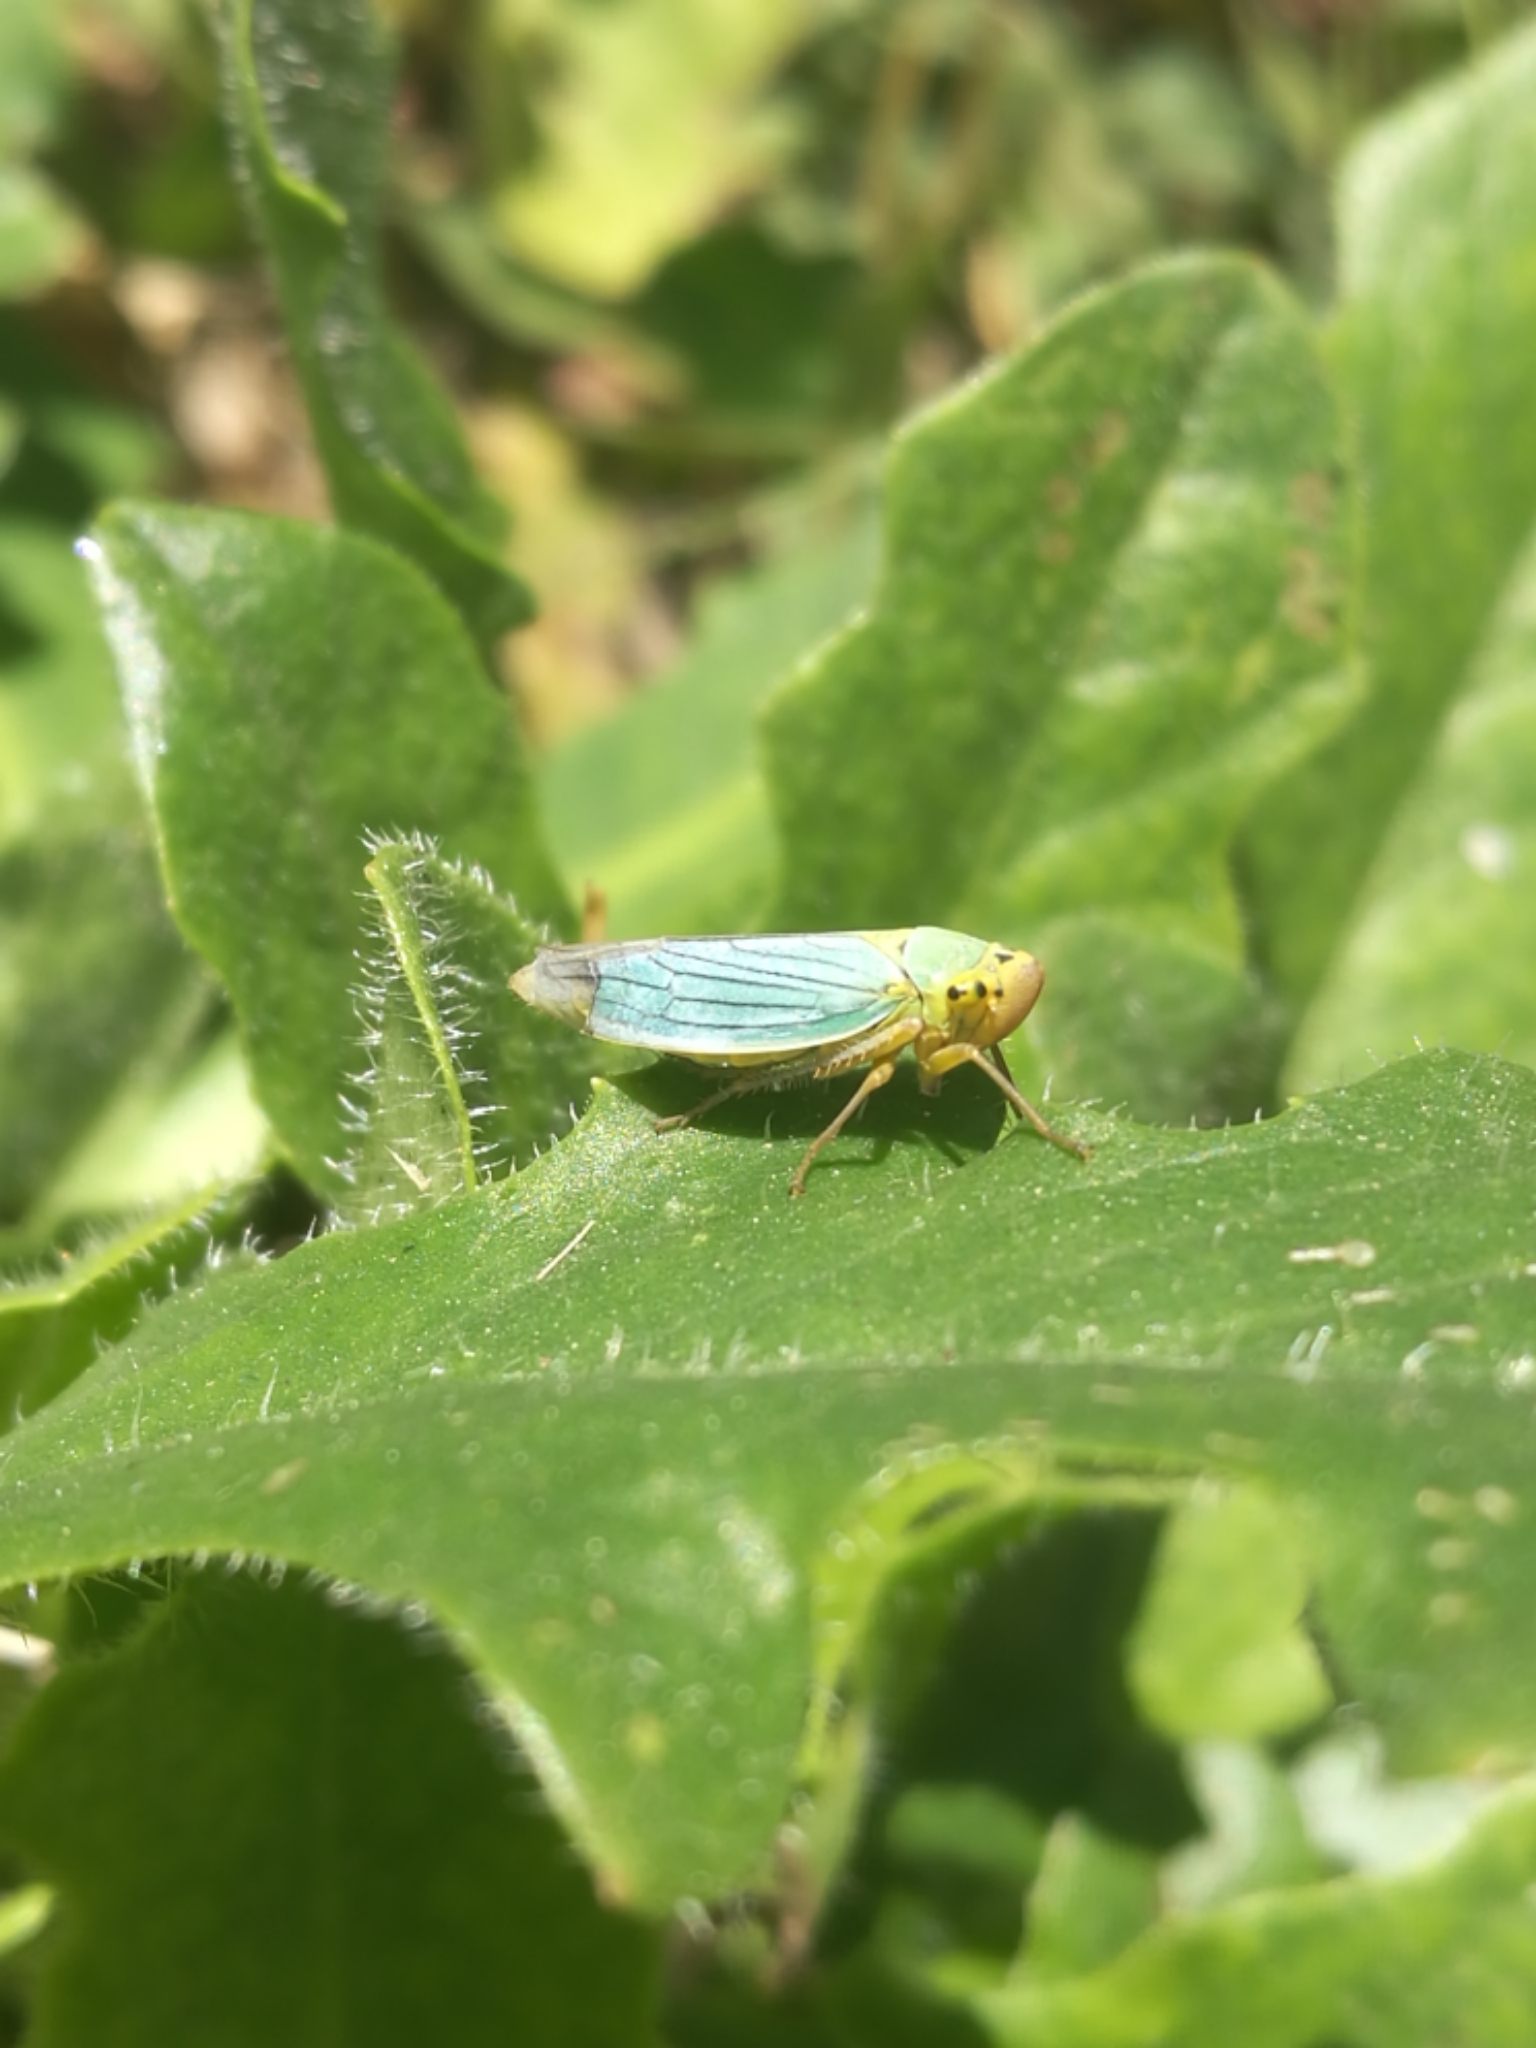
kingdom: Animalia
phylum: Arthropoda
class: Insecta
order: Hemiptera
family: Cicadellidae
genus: Cicadella
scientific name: Cicadella viridis
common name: Leafhopper
